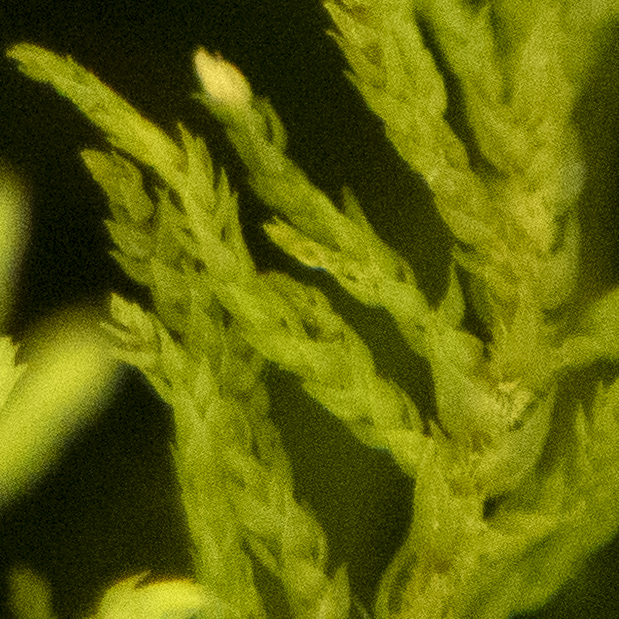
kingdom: Plantae
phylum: Bryophyta
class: Bryopsida
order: Hypnales
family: Thuidiaceae
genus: Thuidium
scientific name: Thuidium delicatulum
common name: Delicate fern moss
